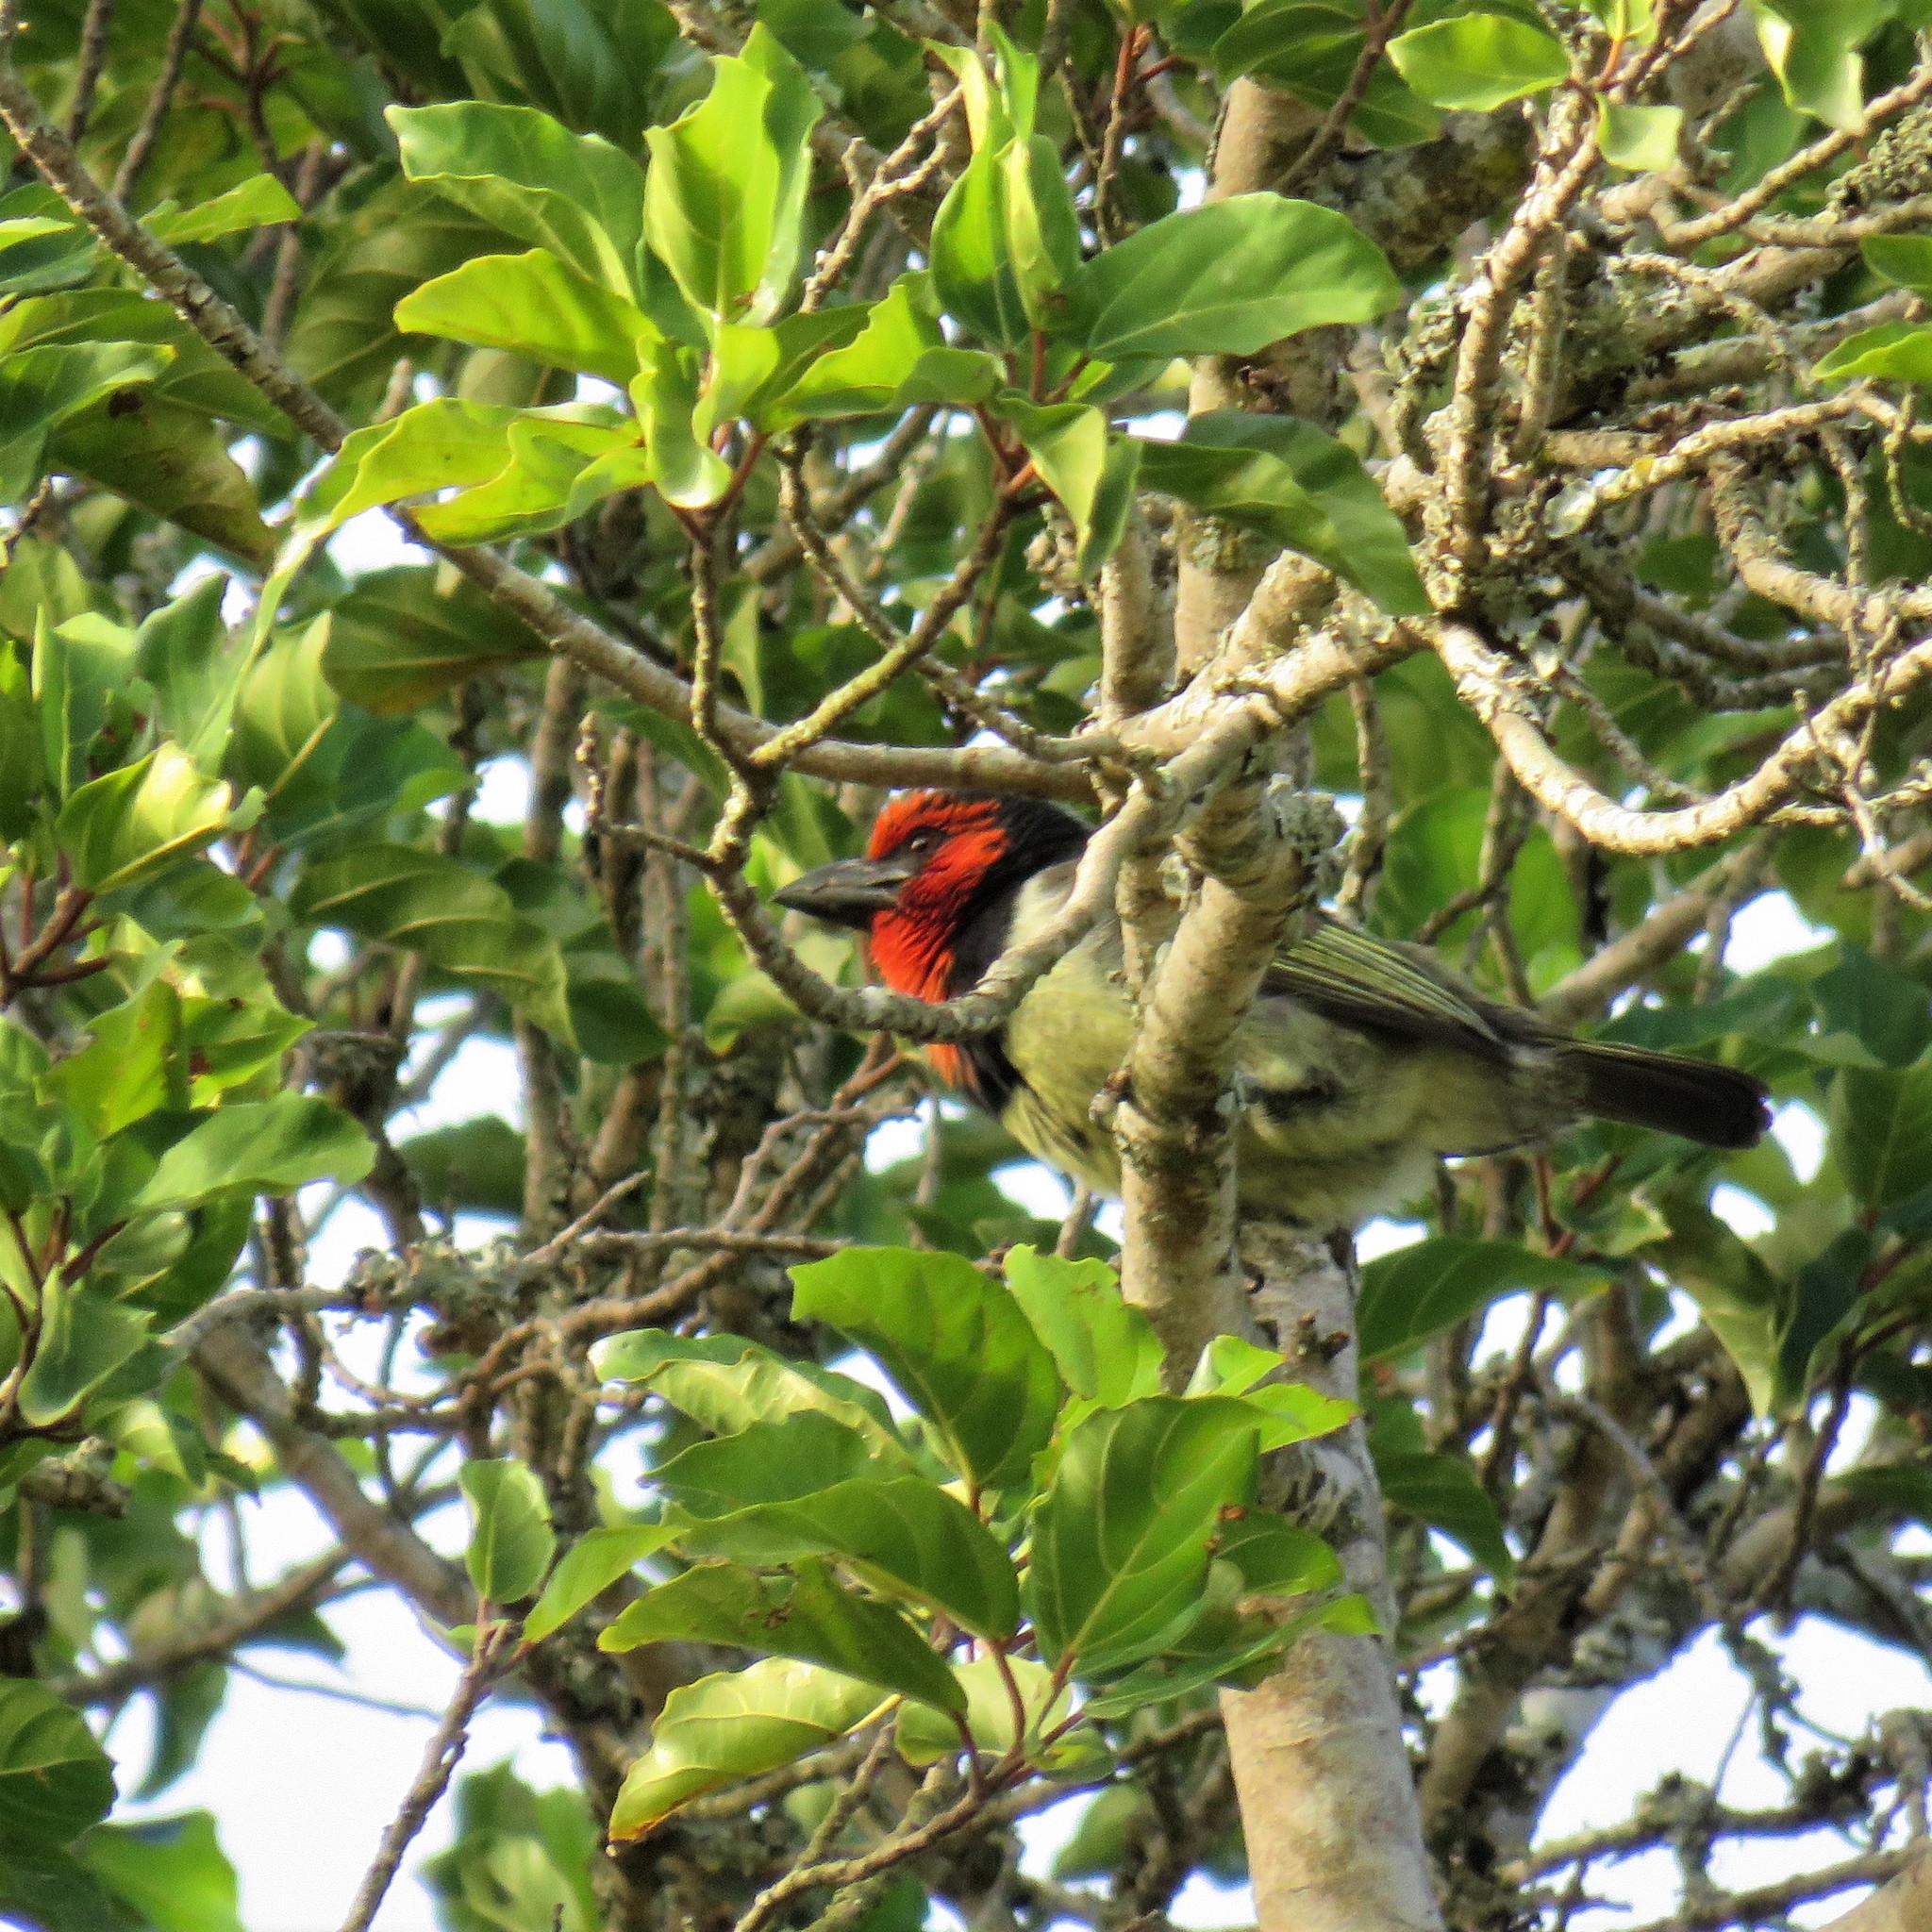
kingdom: Animalia
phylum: Chordata
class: Aves
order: Piciformes
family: Lybiidae
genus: Lybius
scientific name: Lybius torquatus
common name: Black-collared barbet
